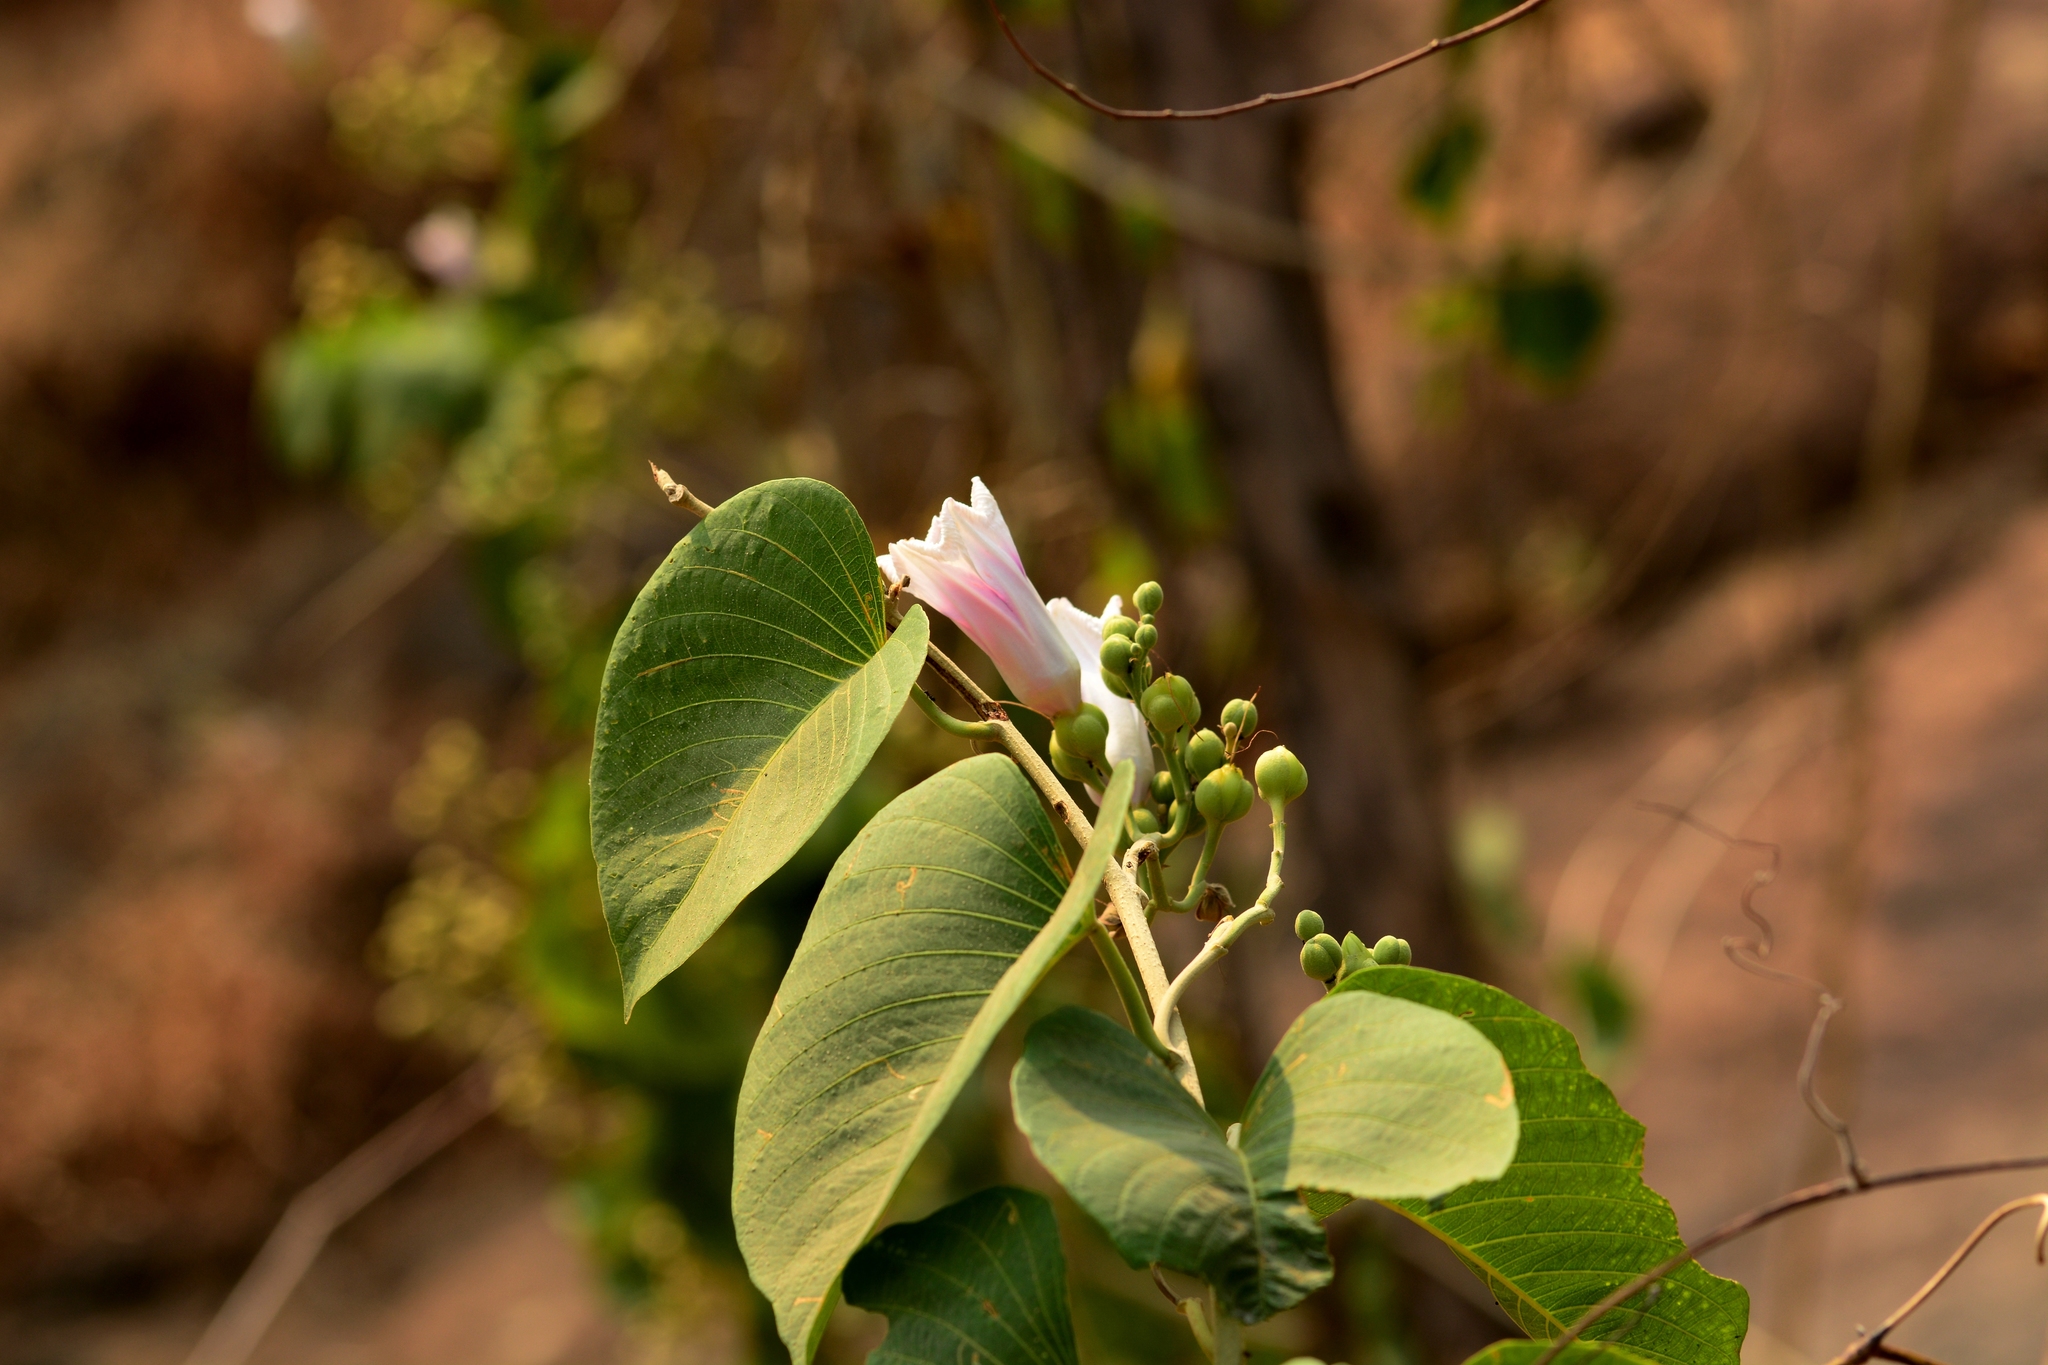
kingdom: Plantae
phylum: Tracheophyta
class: Magnoliopsida
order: Solanales
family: Convolvulaceae
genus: Ipomoea
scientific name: Ipomoea campanulata
